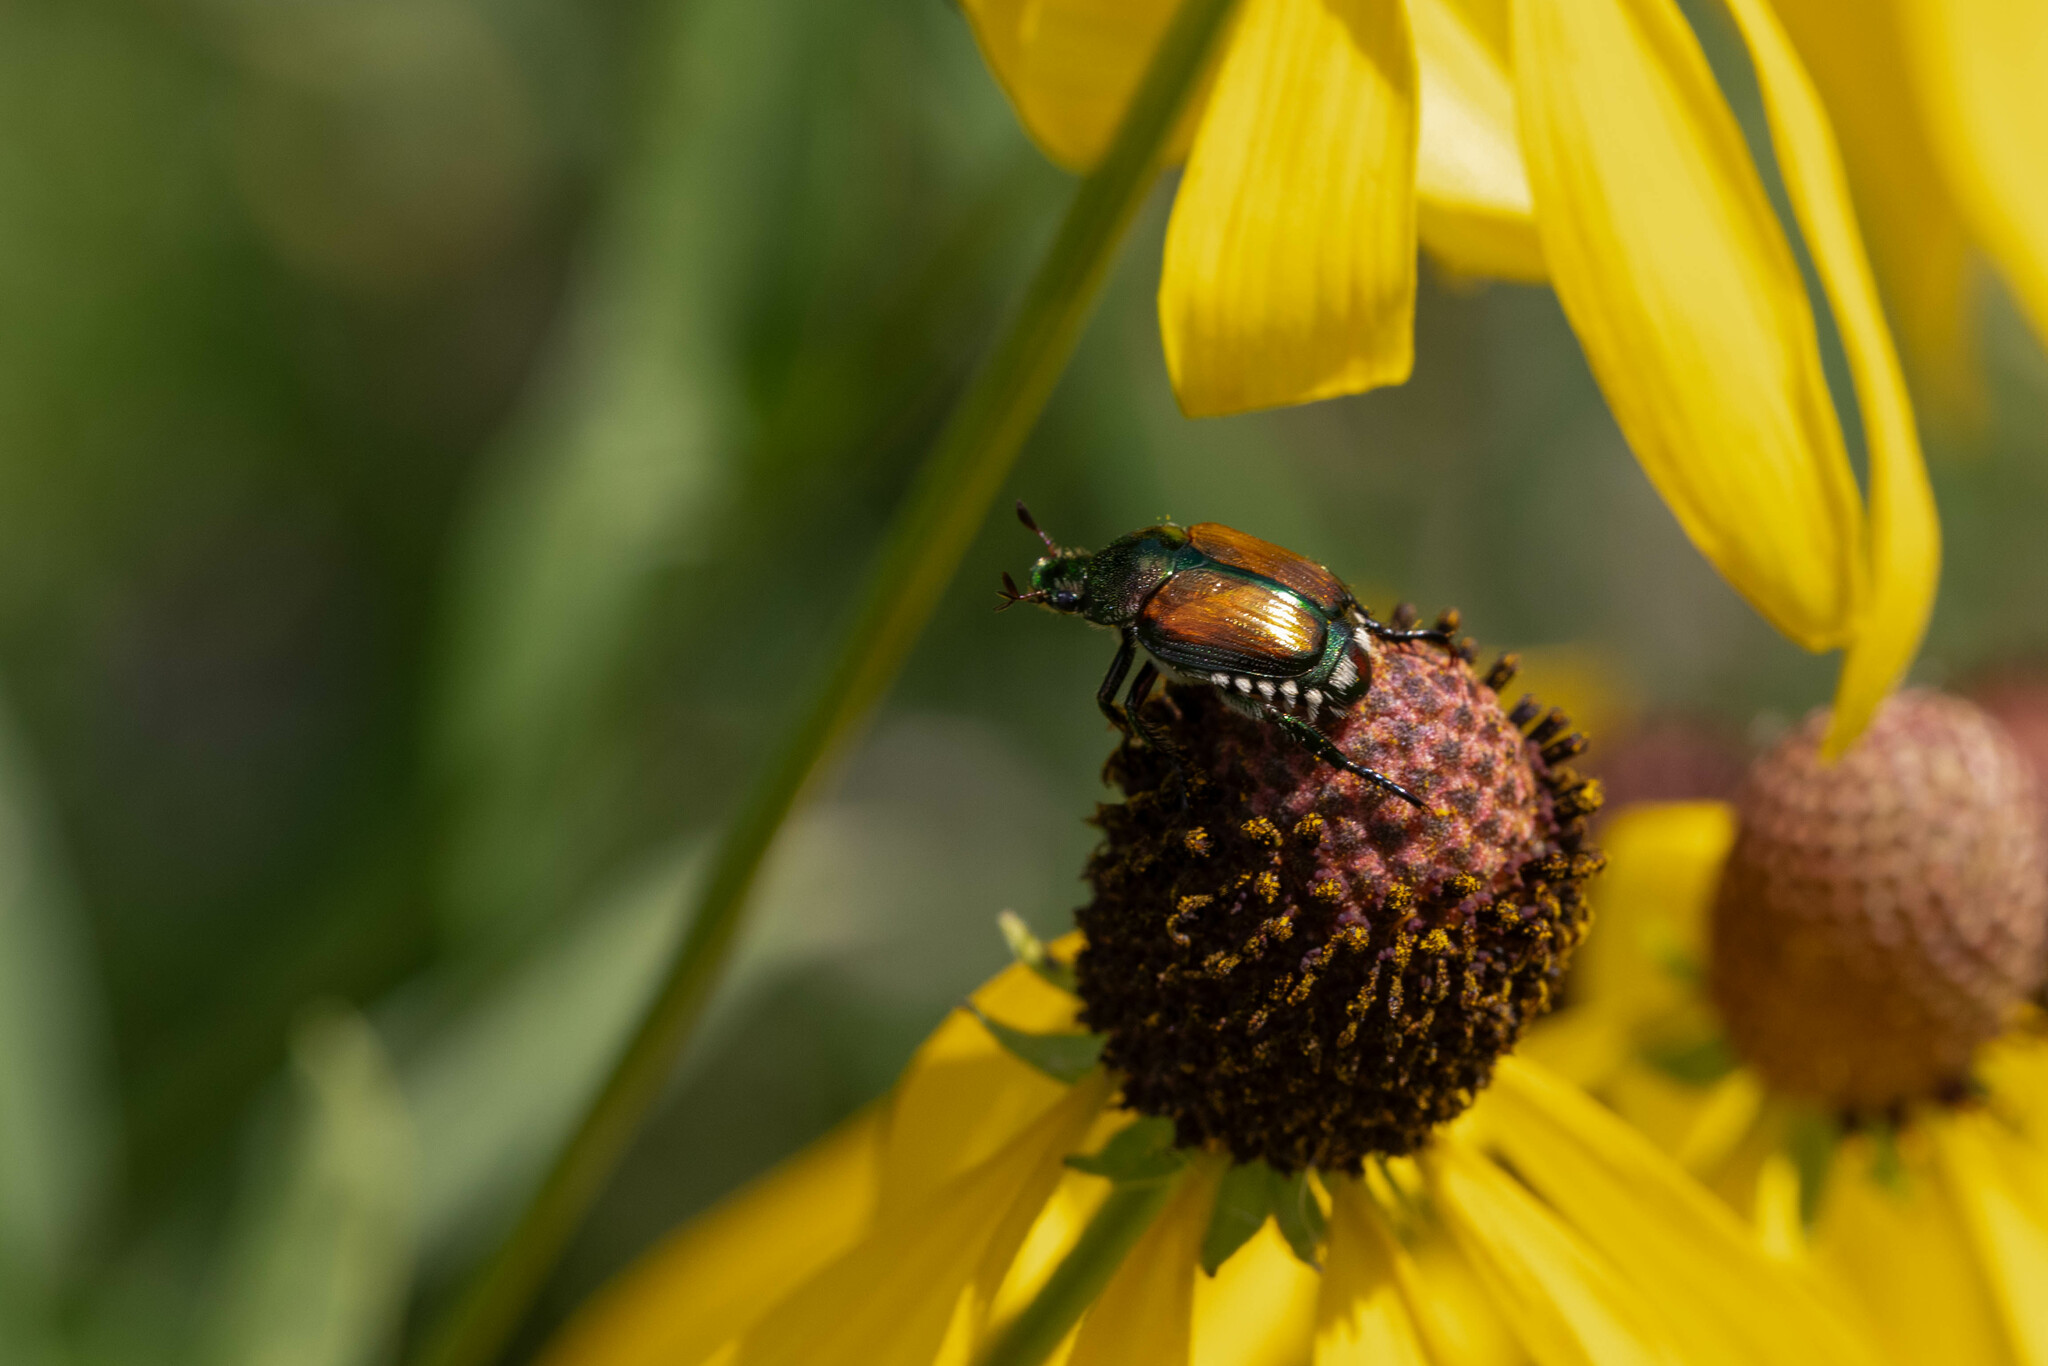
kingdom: Animalia
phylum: Arthropoda
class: Insecta
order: Coleoptera
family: Scarabaeidae
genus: Popillia
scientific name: Popillia japonica
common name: Japanese beetle
